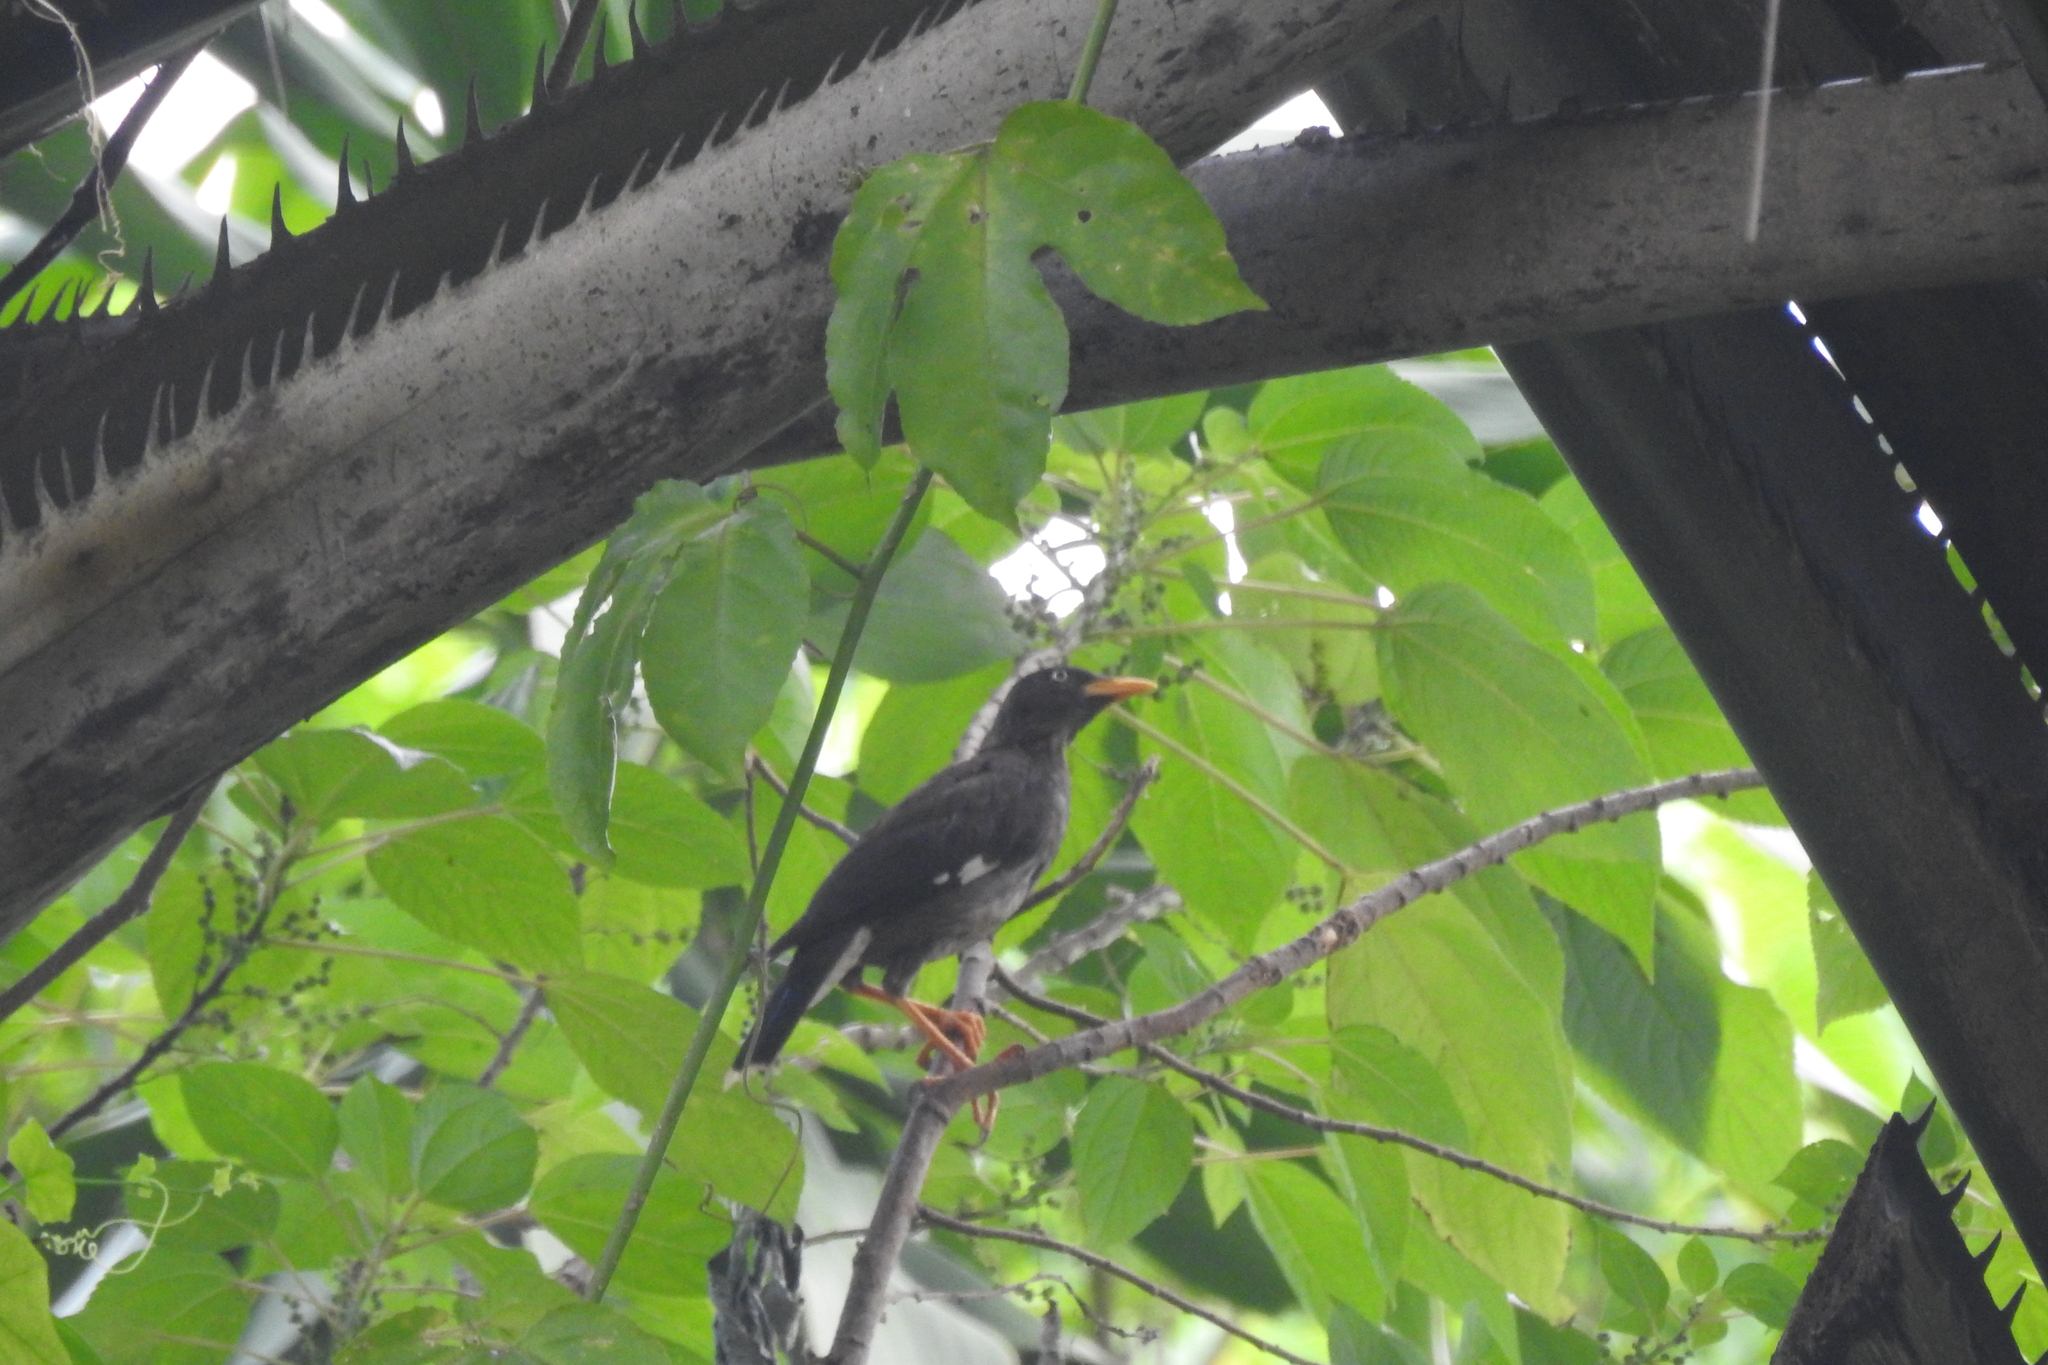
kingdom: Animalia
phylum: Chordata
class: Aves
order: Passeriformes
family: Sturnidae
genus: Acridotheres
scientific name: Acridotheres javanicus
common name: Javan myna
